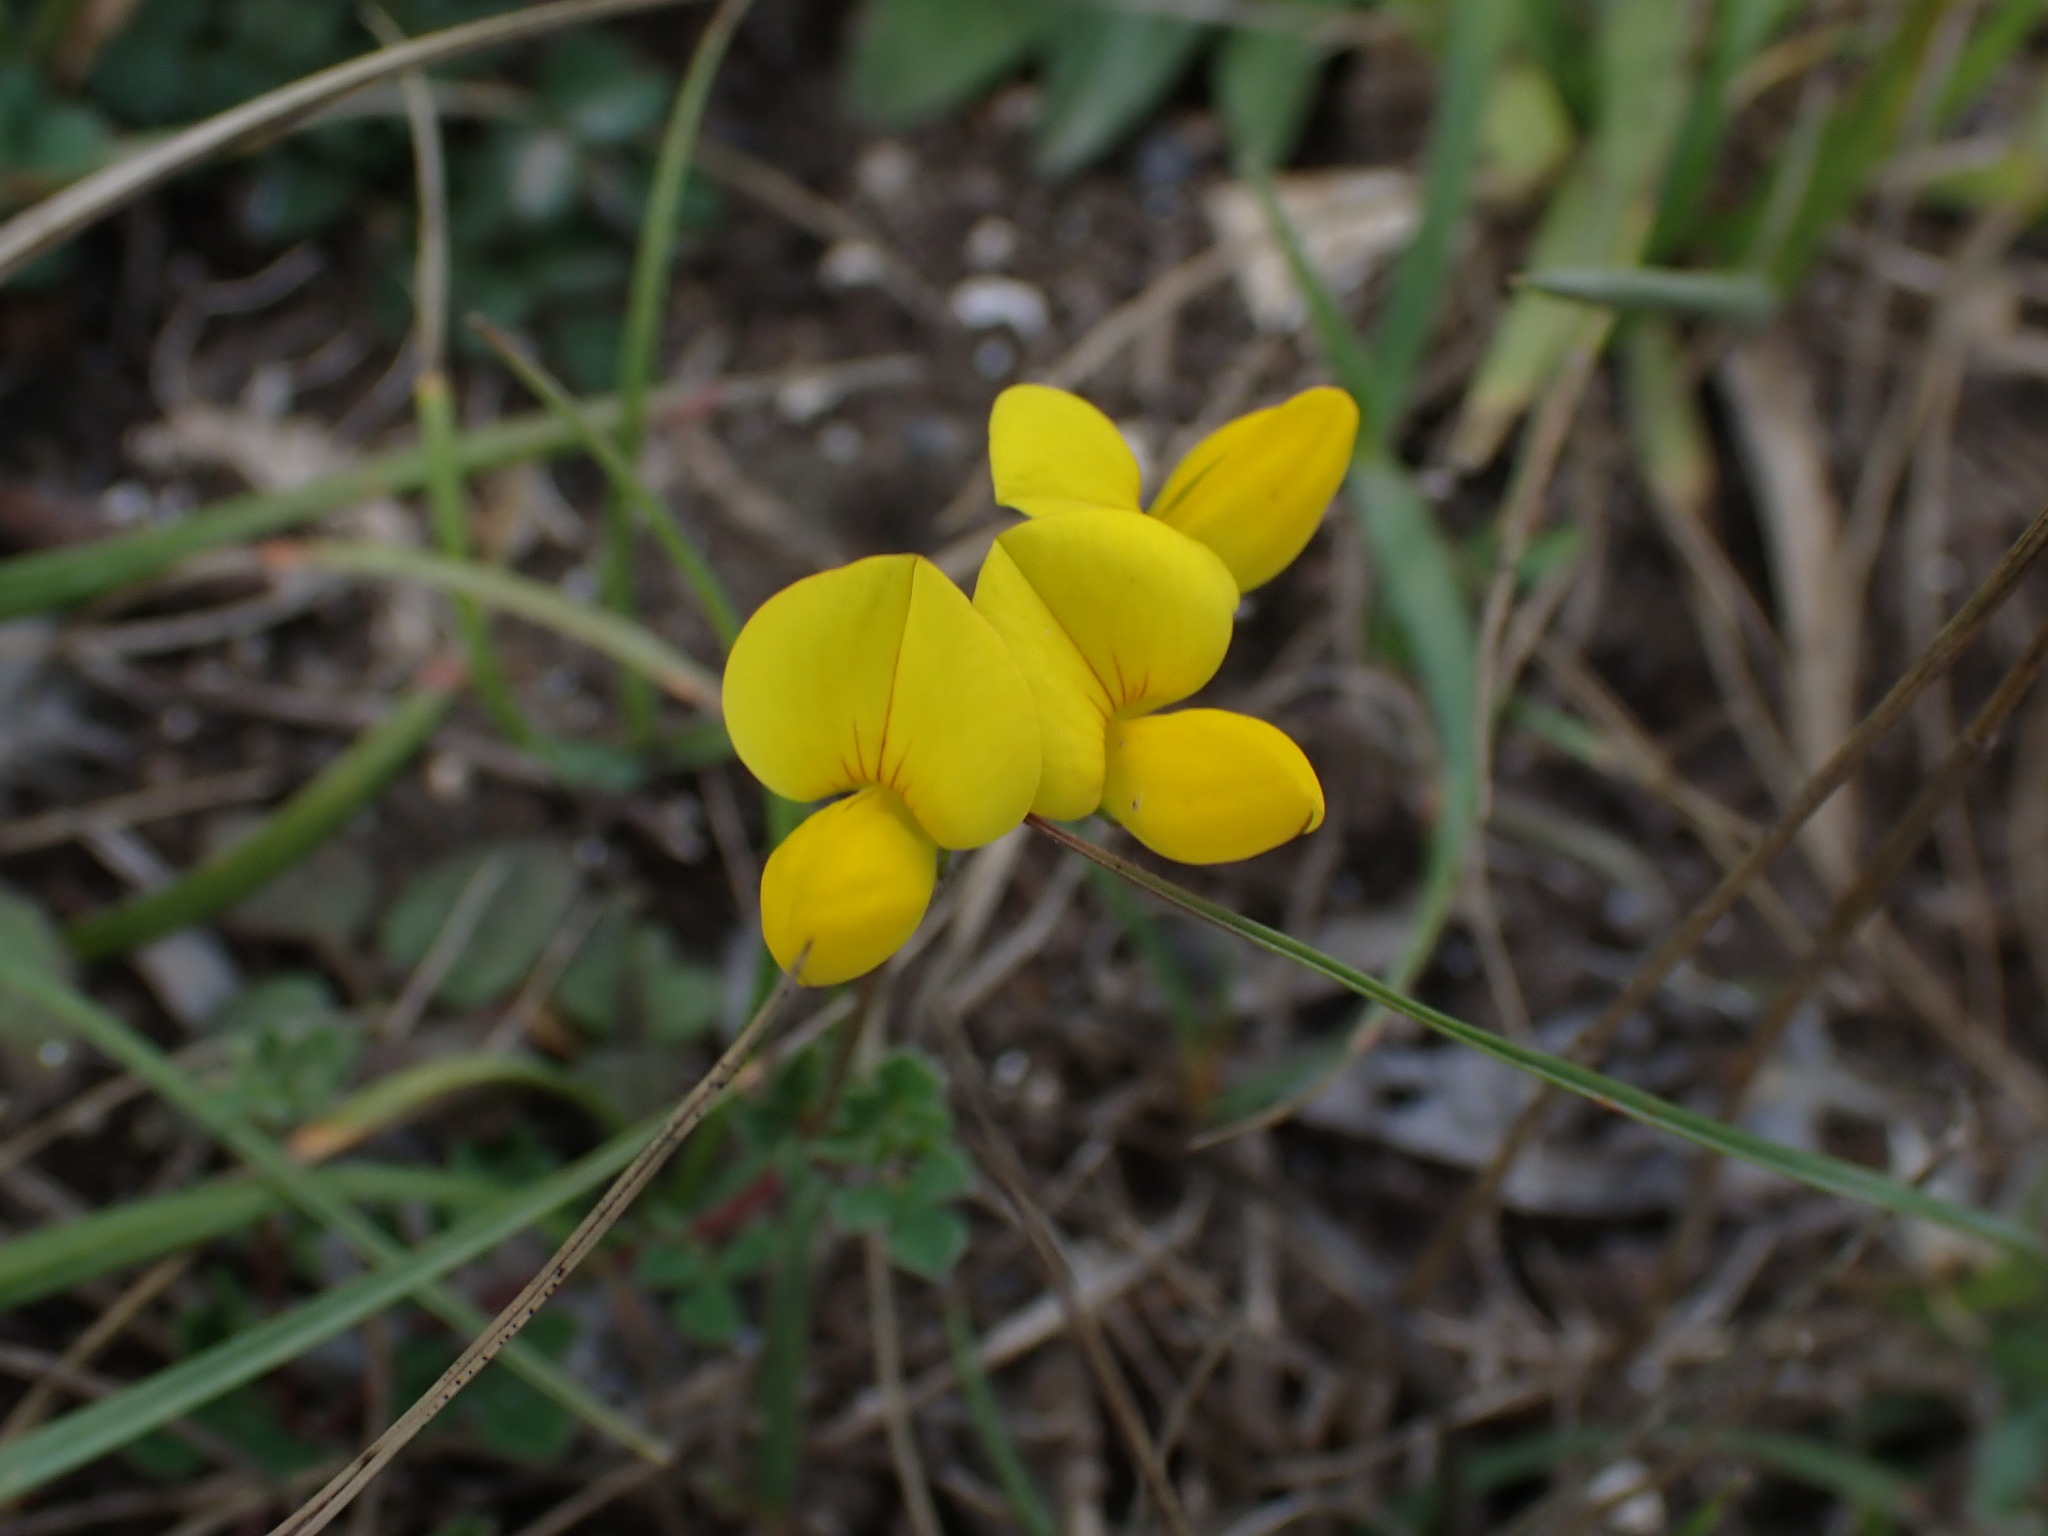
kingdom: Plantae
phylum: Tracheophyta
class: Magnoliopsida
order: Fabales
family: Fabaceae
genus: Lotus
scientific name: Lotus corniculatus
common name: Common bird's-foot-trefoil
